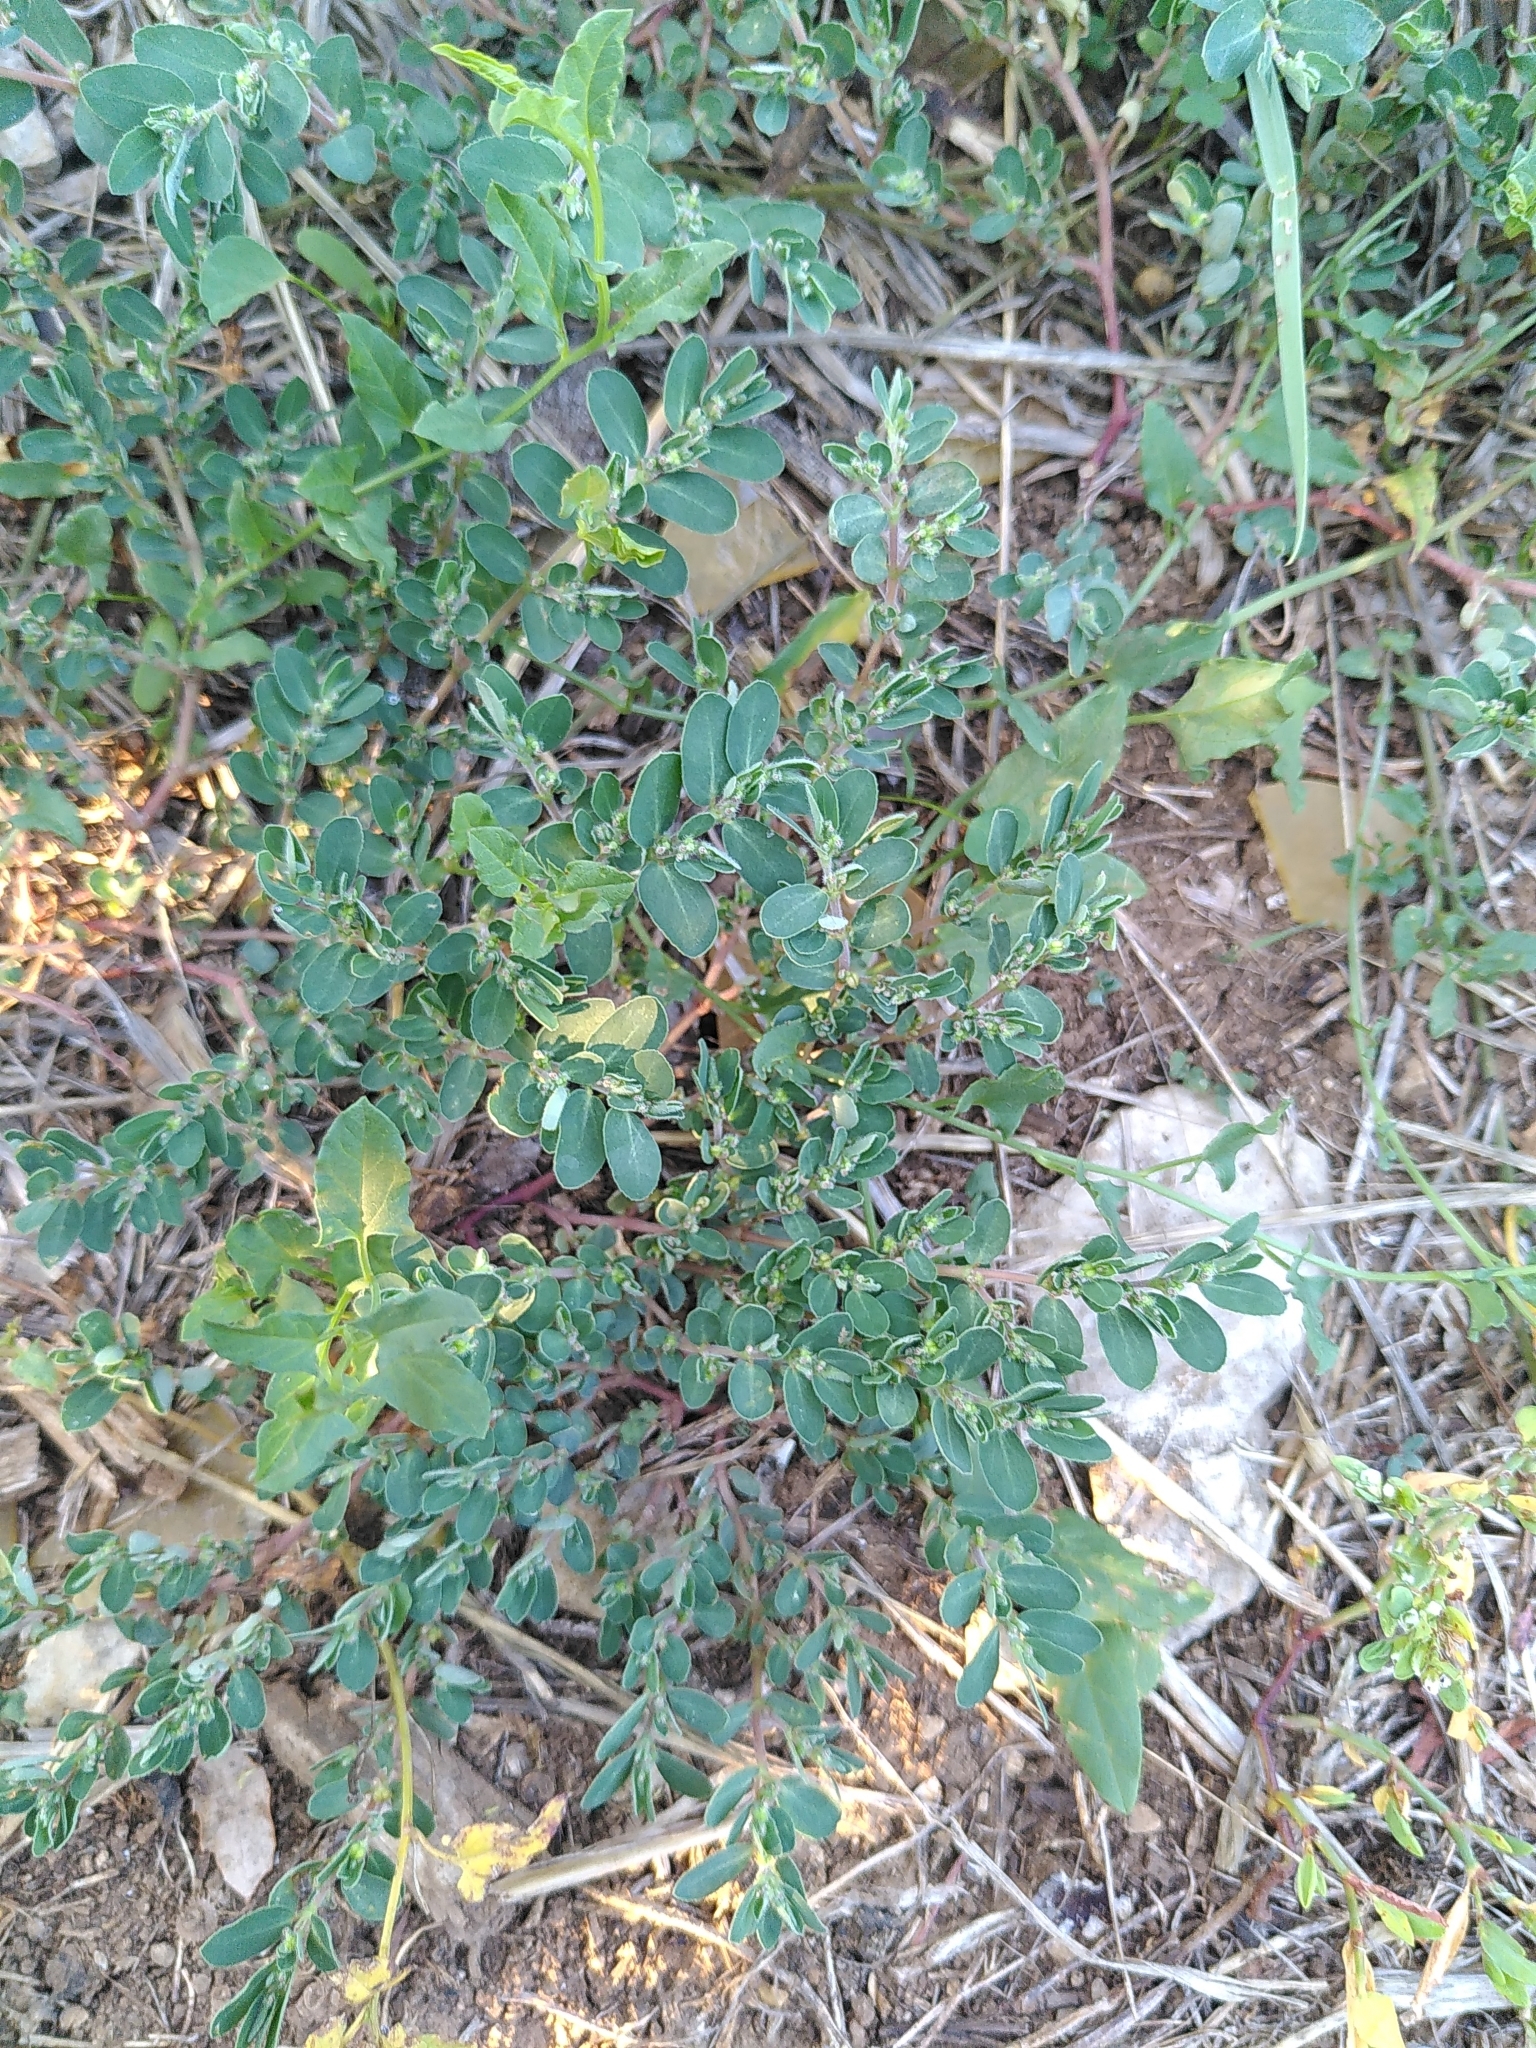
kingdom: Plantae
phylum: Tracheophyta
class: Magnoliopsida
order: Malpighiales
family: Euphorbiaceae
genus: Euphorbia
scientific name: Euphorbia prostrata
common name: Prostrate sandmat
